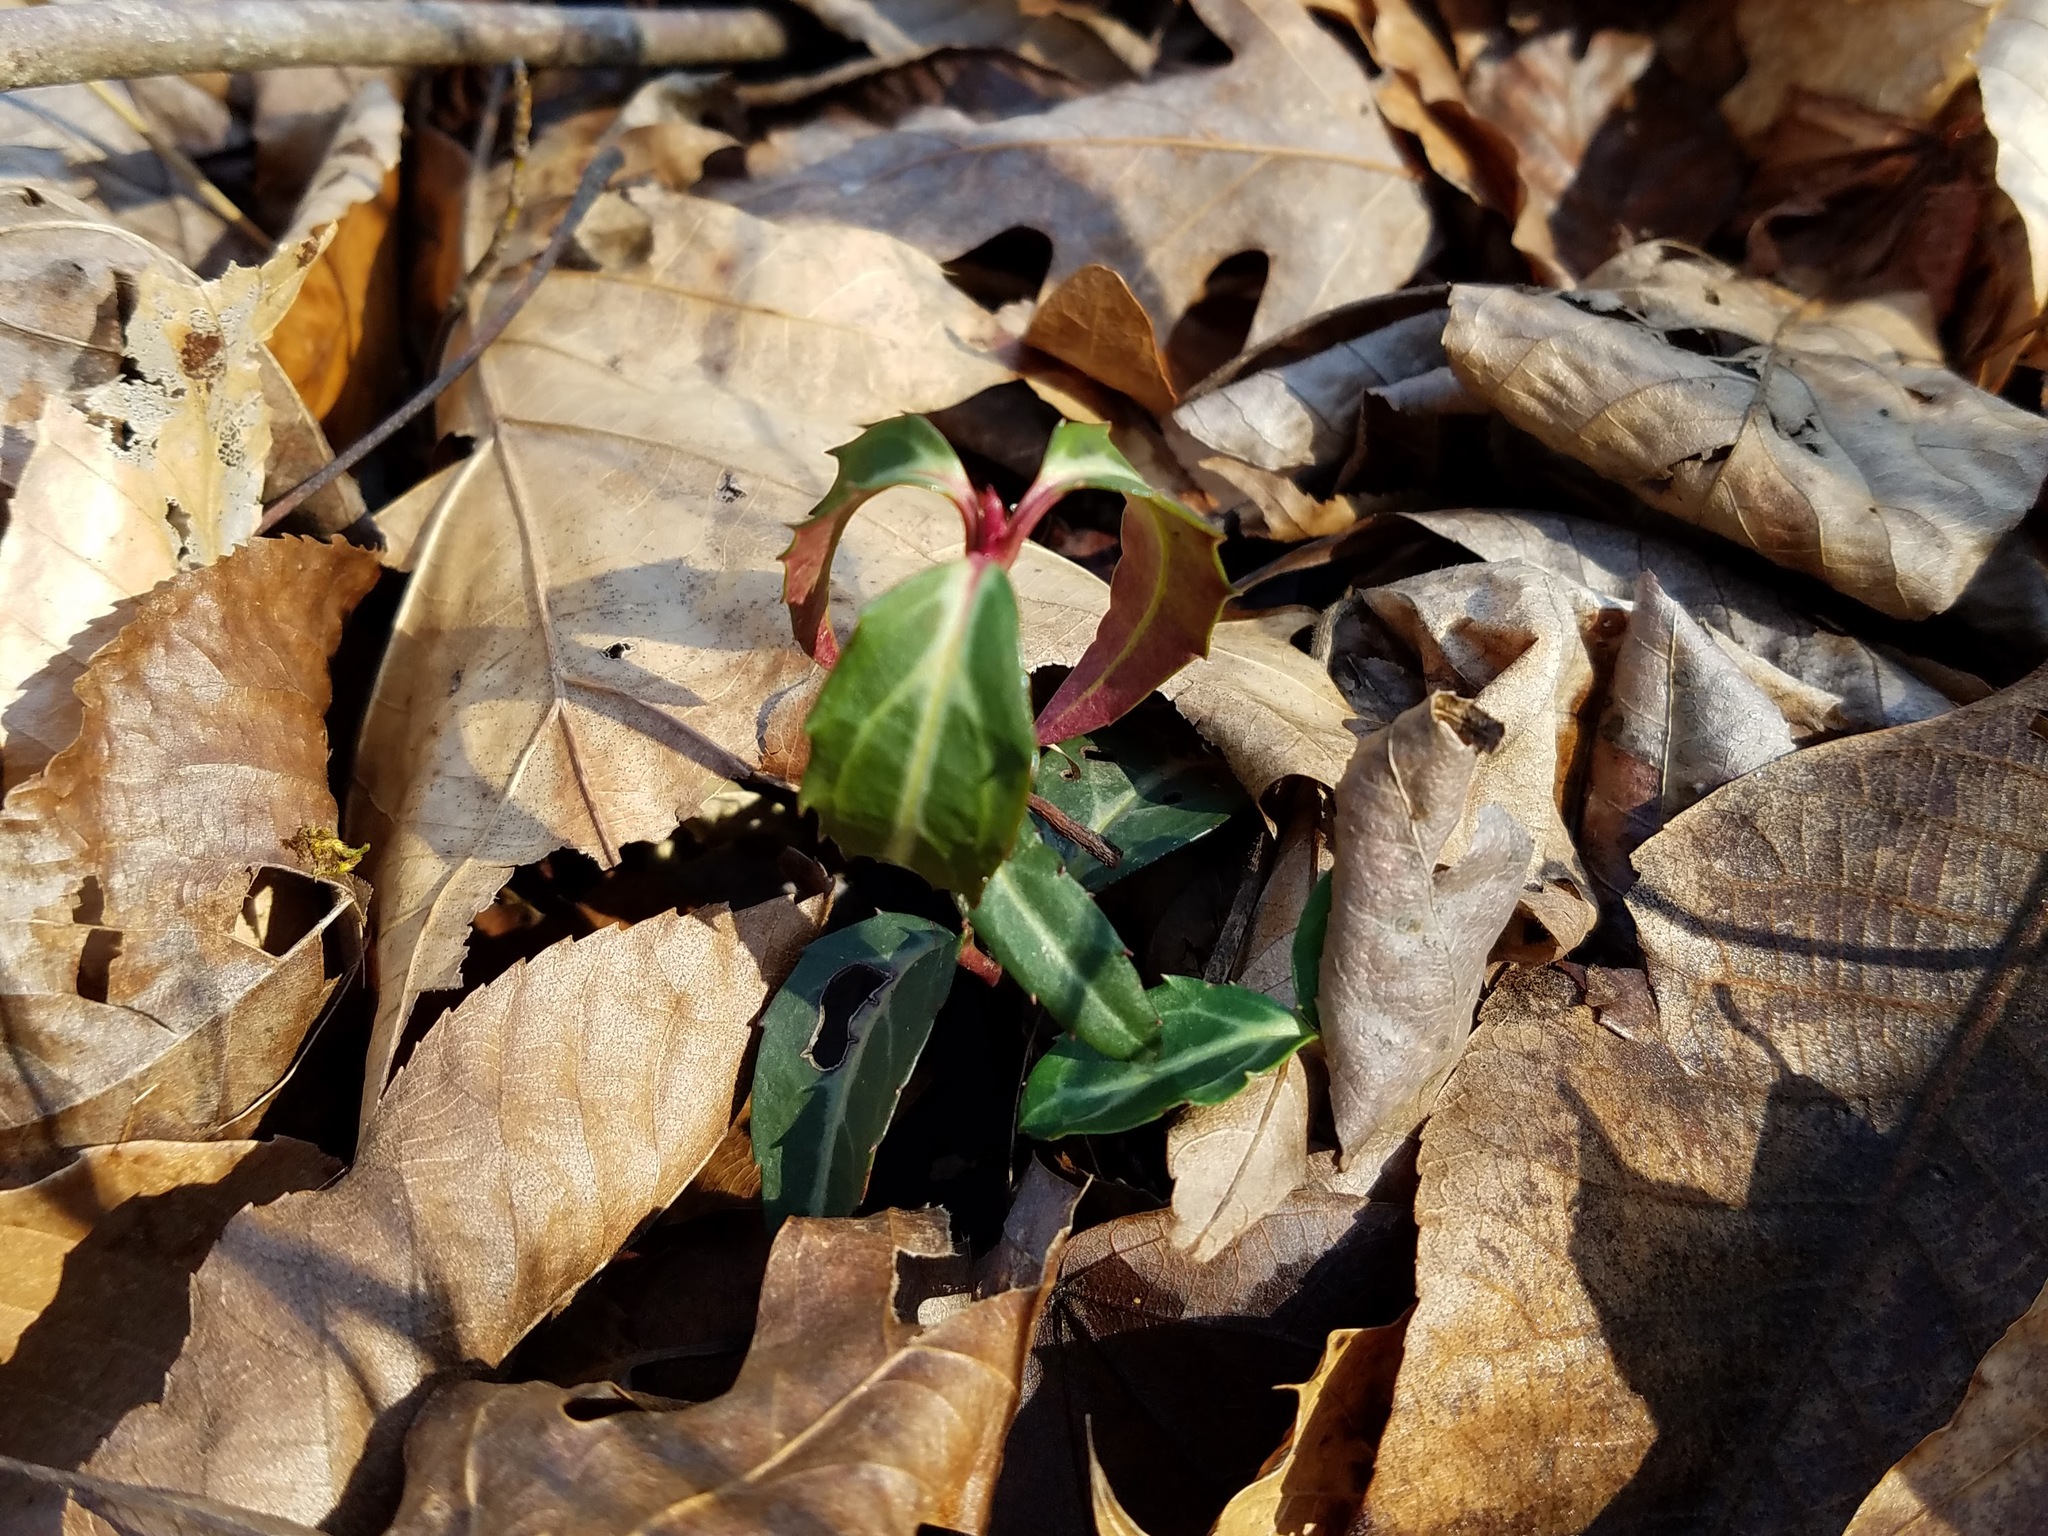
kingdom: Plantae
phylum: Tracheophyta
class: Magnoliopsida
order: Ericales
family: Ericaceae
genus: Chimaphila
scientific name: Chimaphila maculata
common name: Spotted pipsissewa
